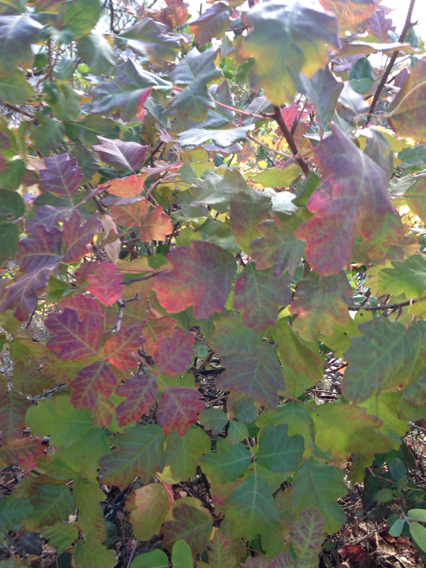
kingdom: Plantae
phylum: Tracheophyta
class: Magnoliopsida
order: Sapindales
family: Anacardiaceae
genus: Toxicodendron
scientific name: Toxicodendron diversilobum
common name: Pacific poison-oak
